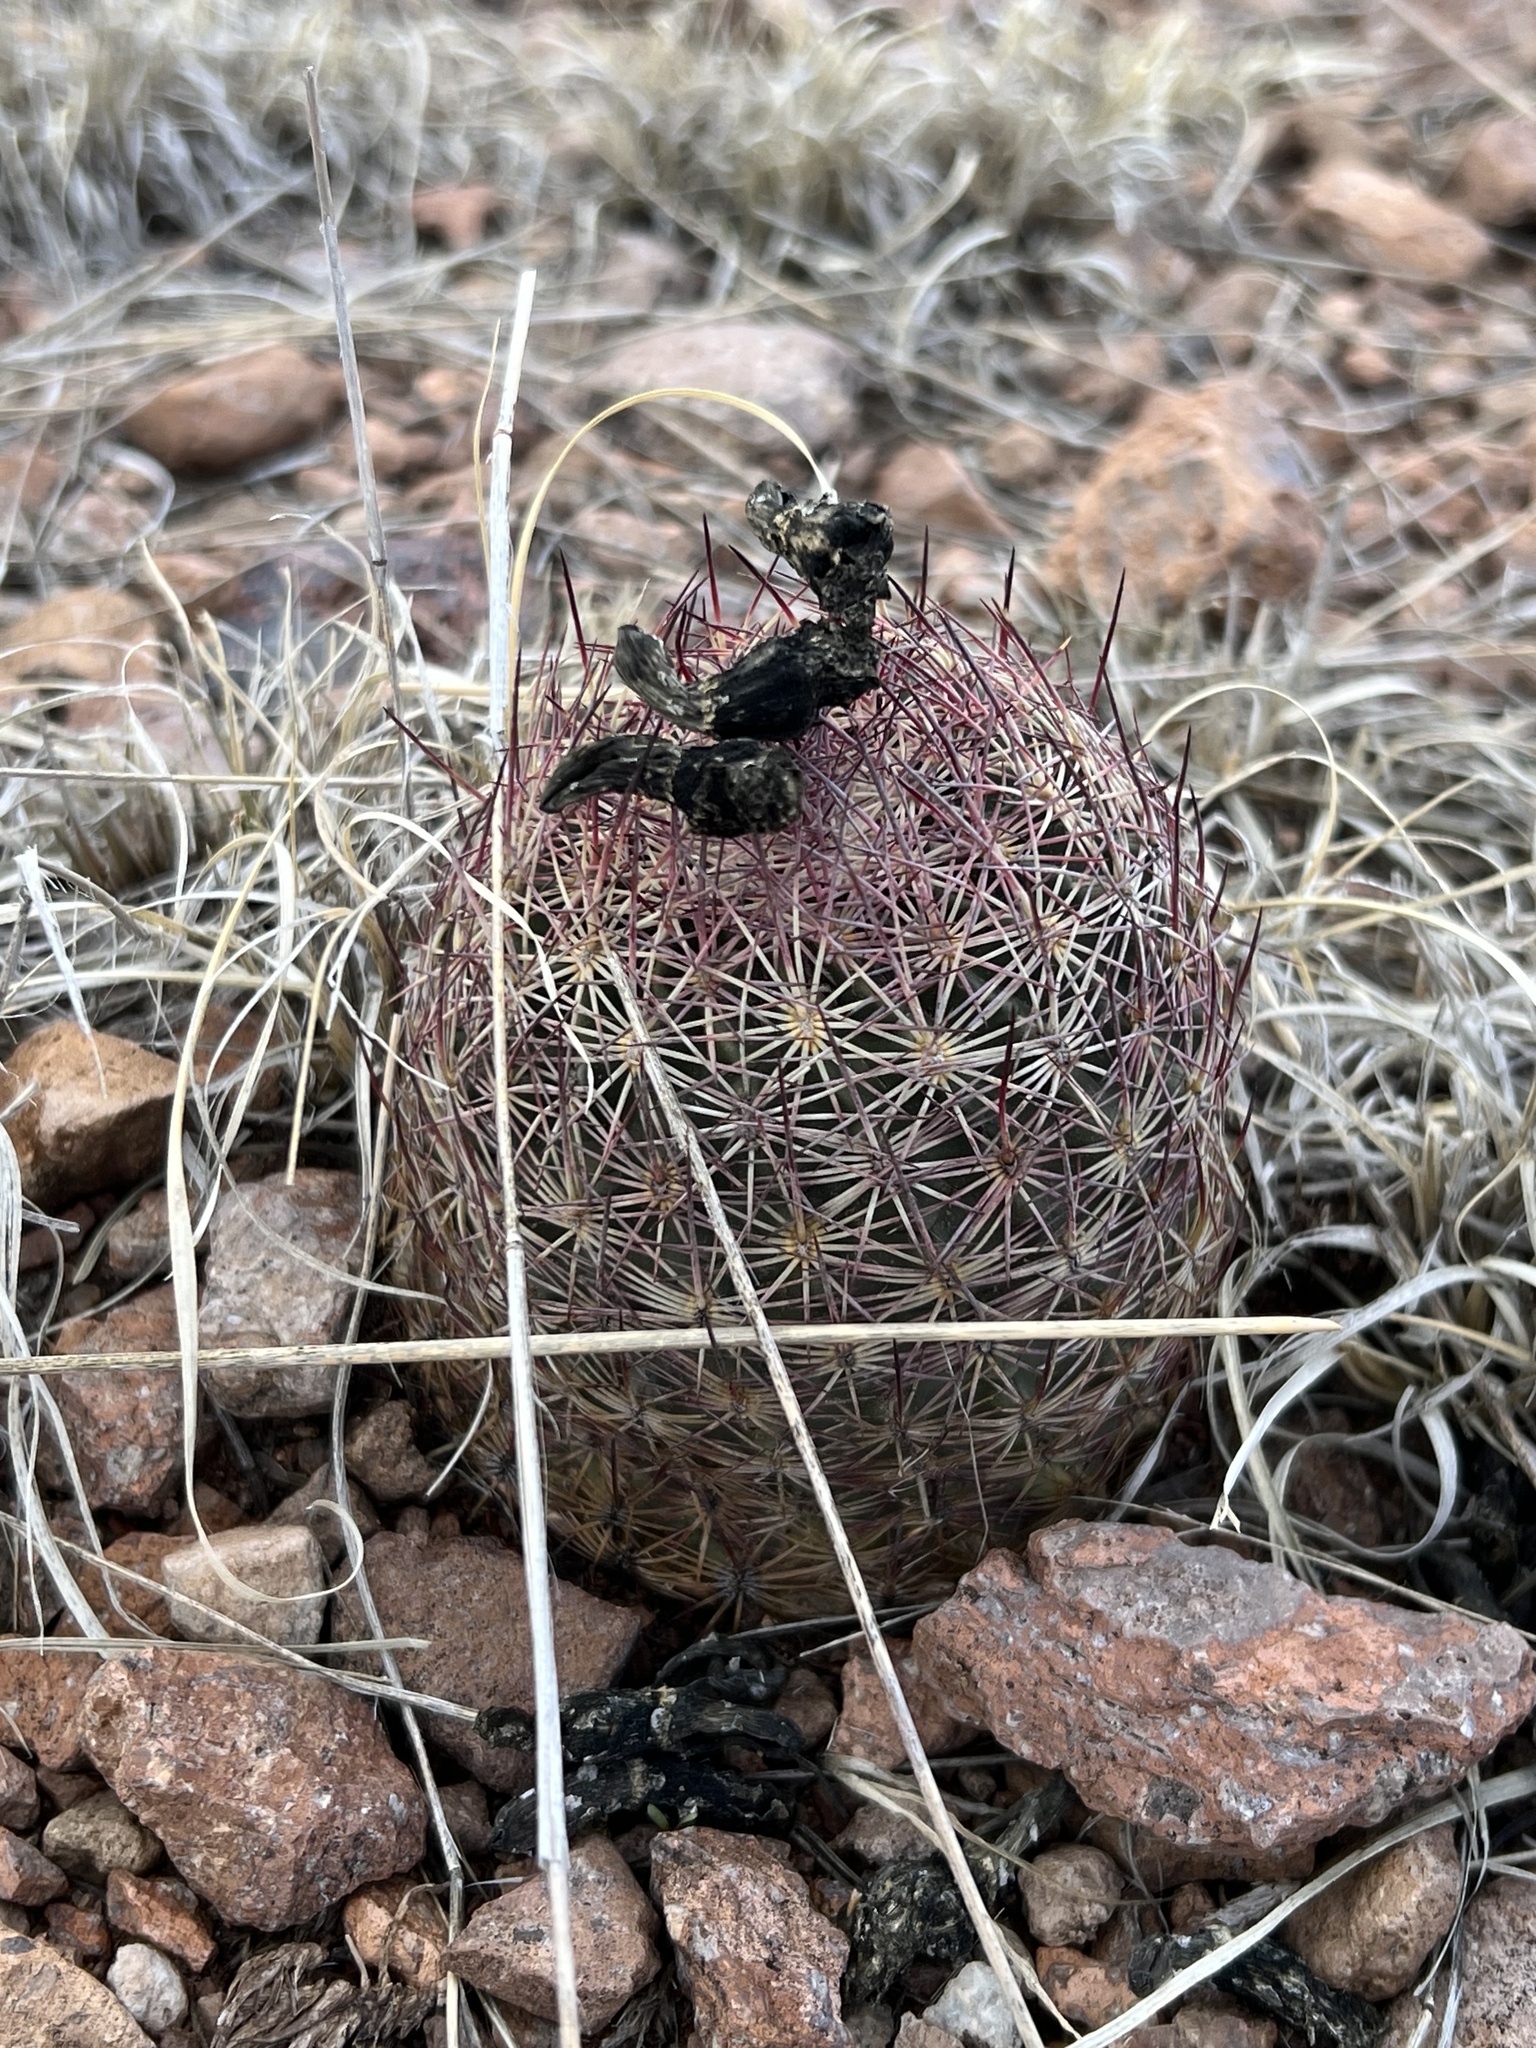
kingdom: Plantae
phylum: Tracheophyta
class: Magnoliopsida
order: Caryophyllales
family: Cactaceae
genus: Sclerocactus
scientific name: Sclerocactus johnsonii
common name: Eight-spine fishhook cactus
